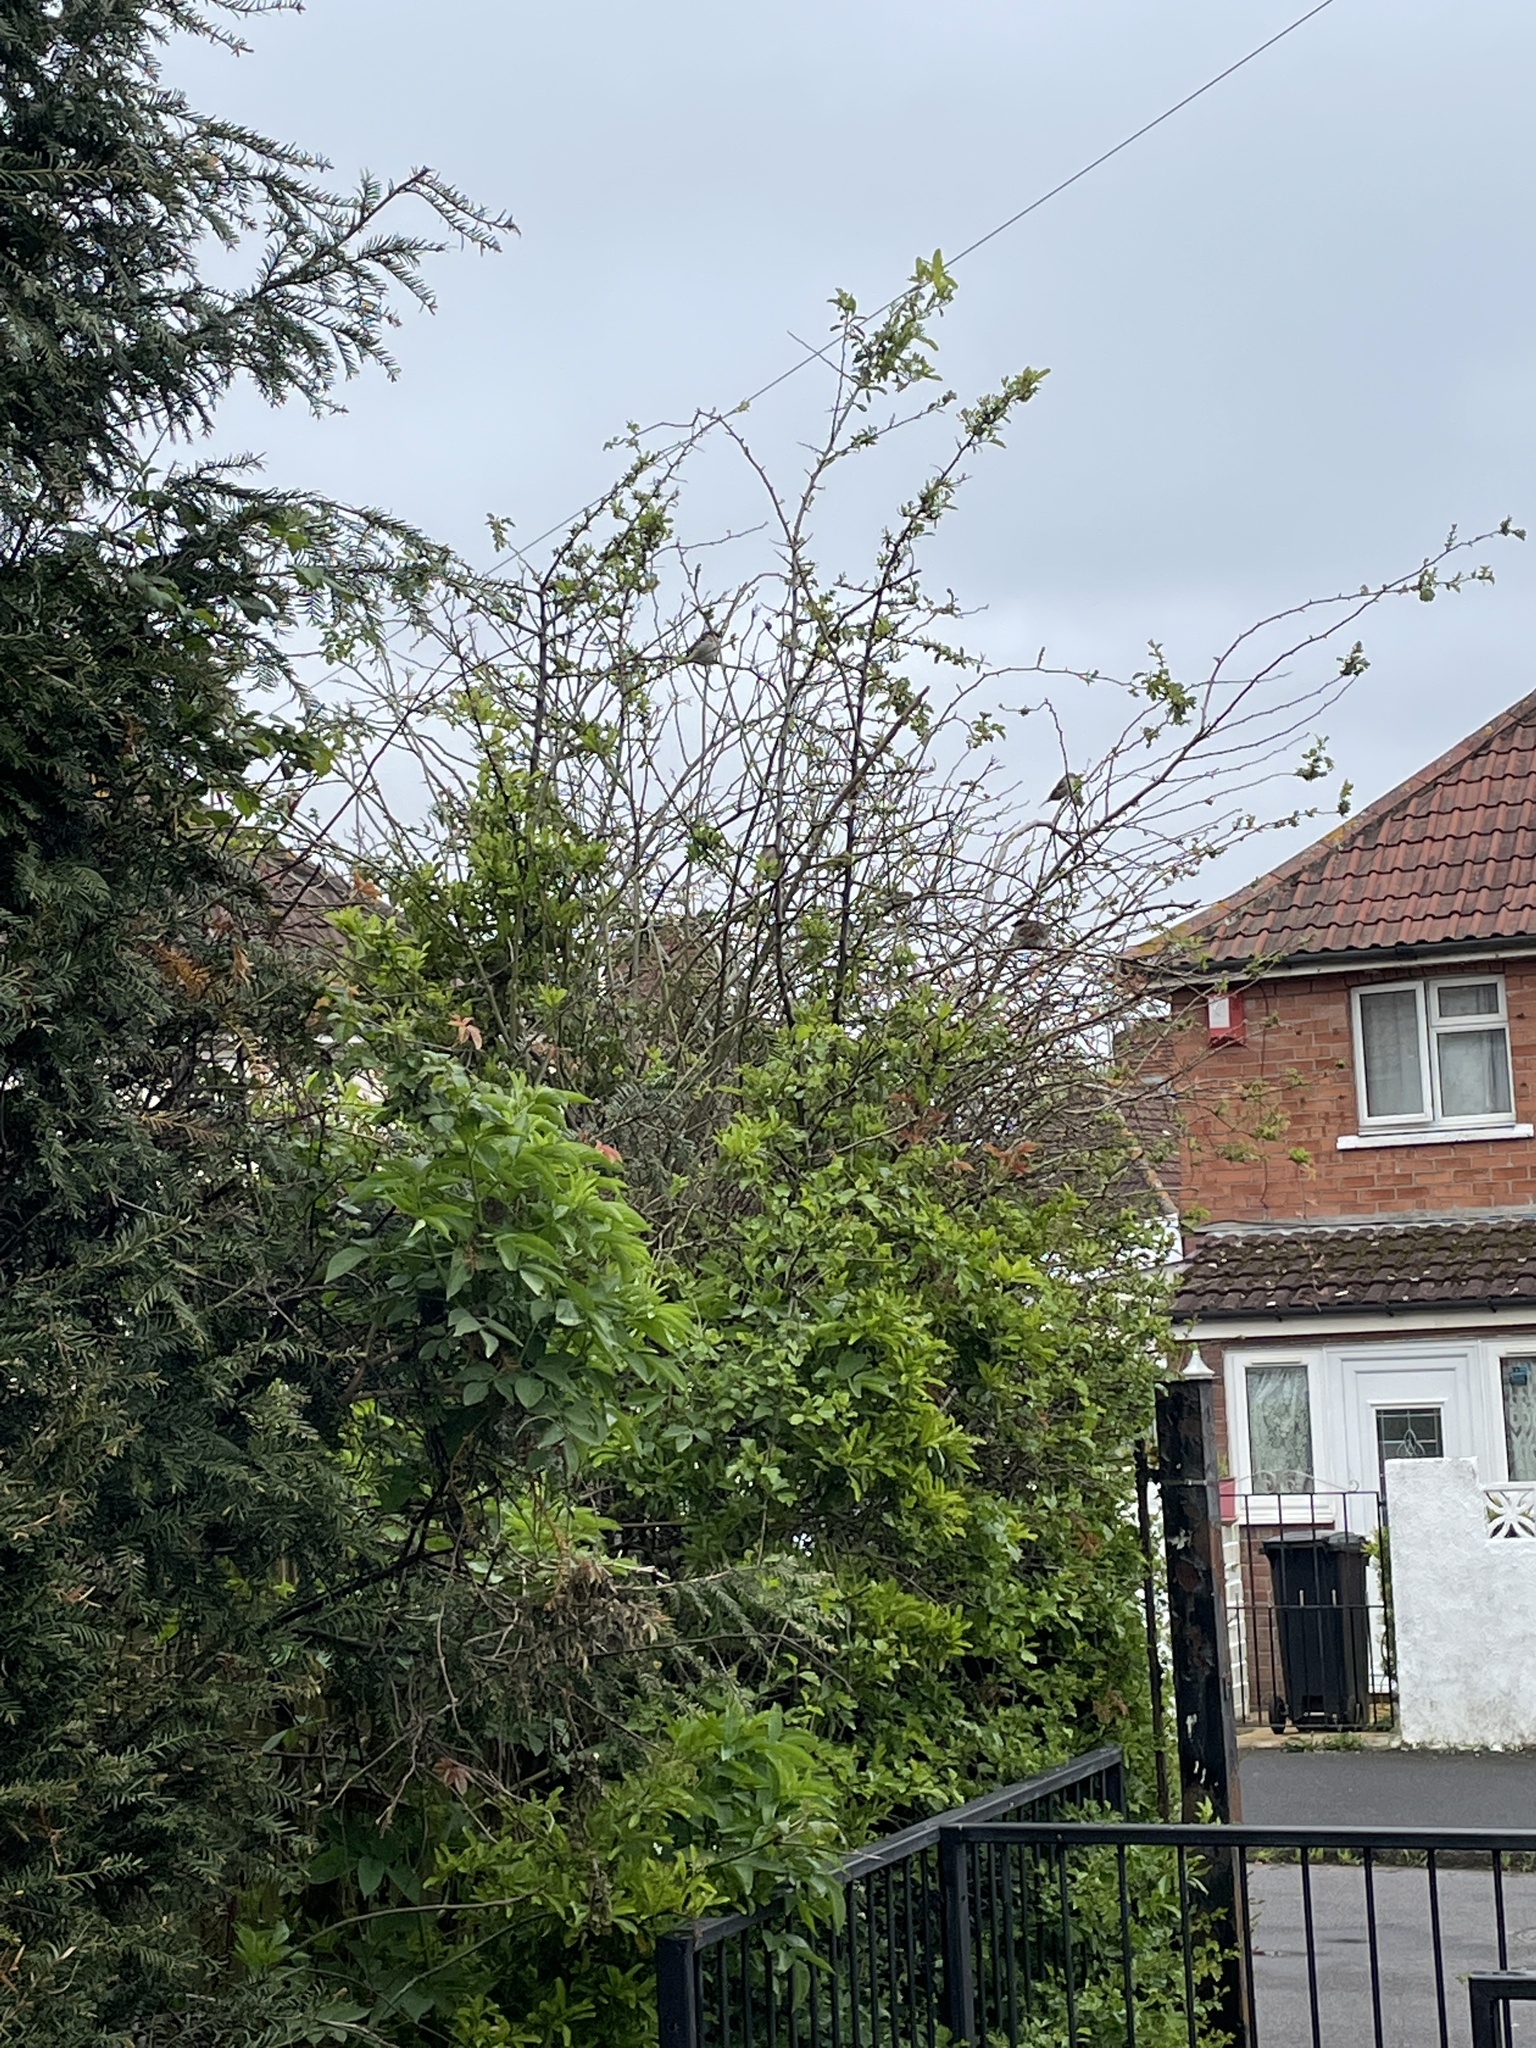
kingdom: Animalia
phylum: Chordata
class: Aves
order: Passeriformes
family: Passeridae
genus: Passer
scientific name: Passer domesticus
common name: House sparrow
